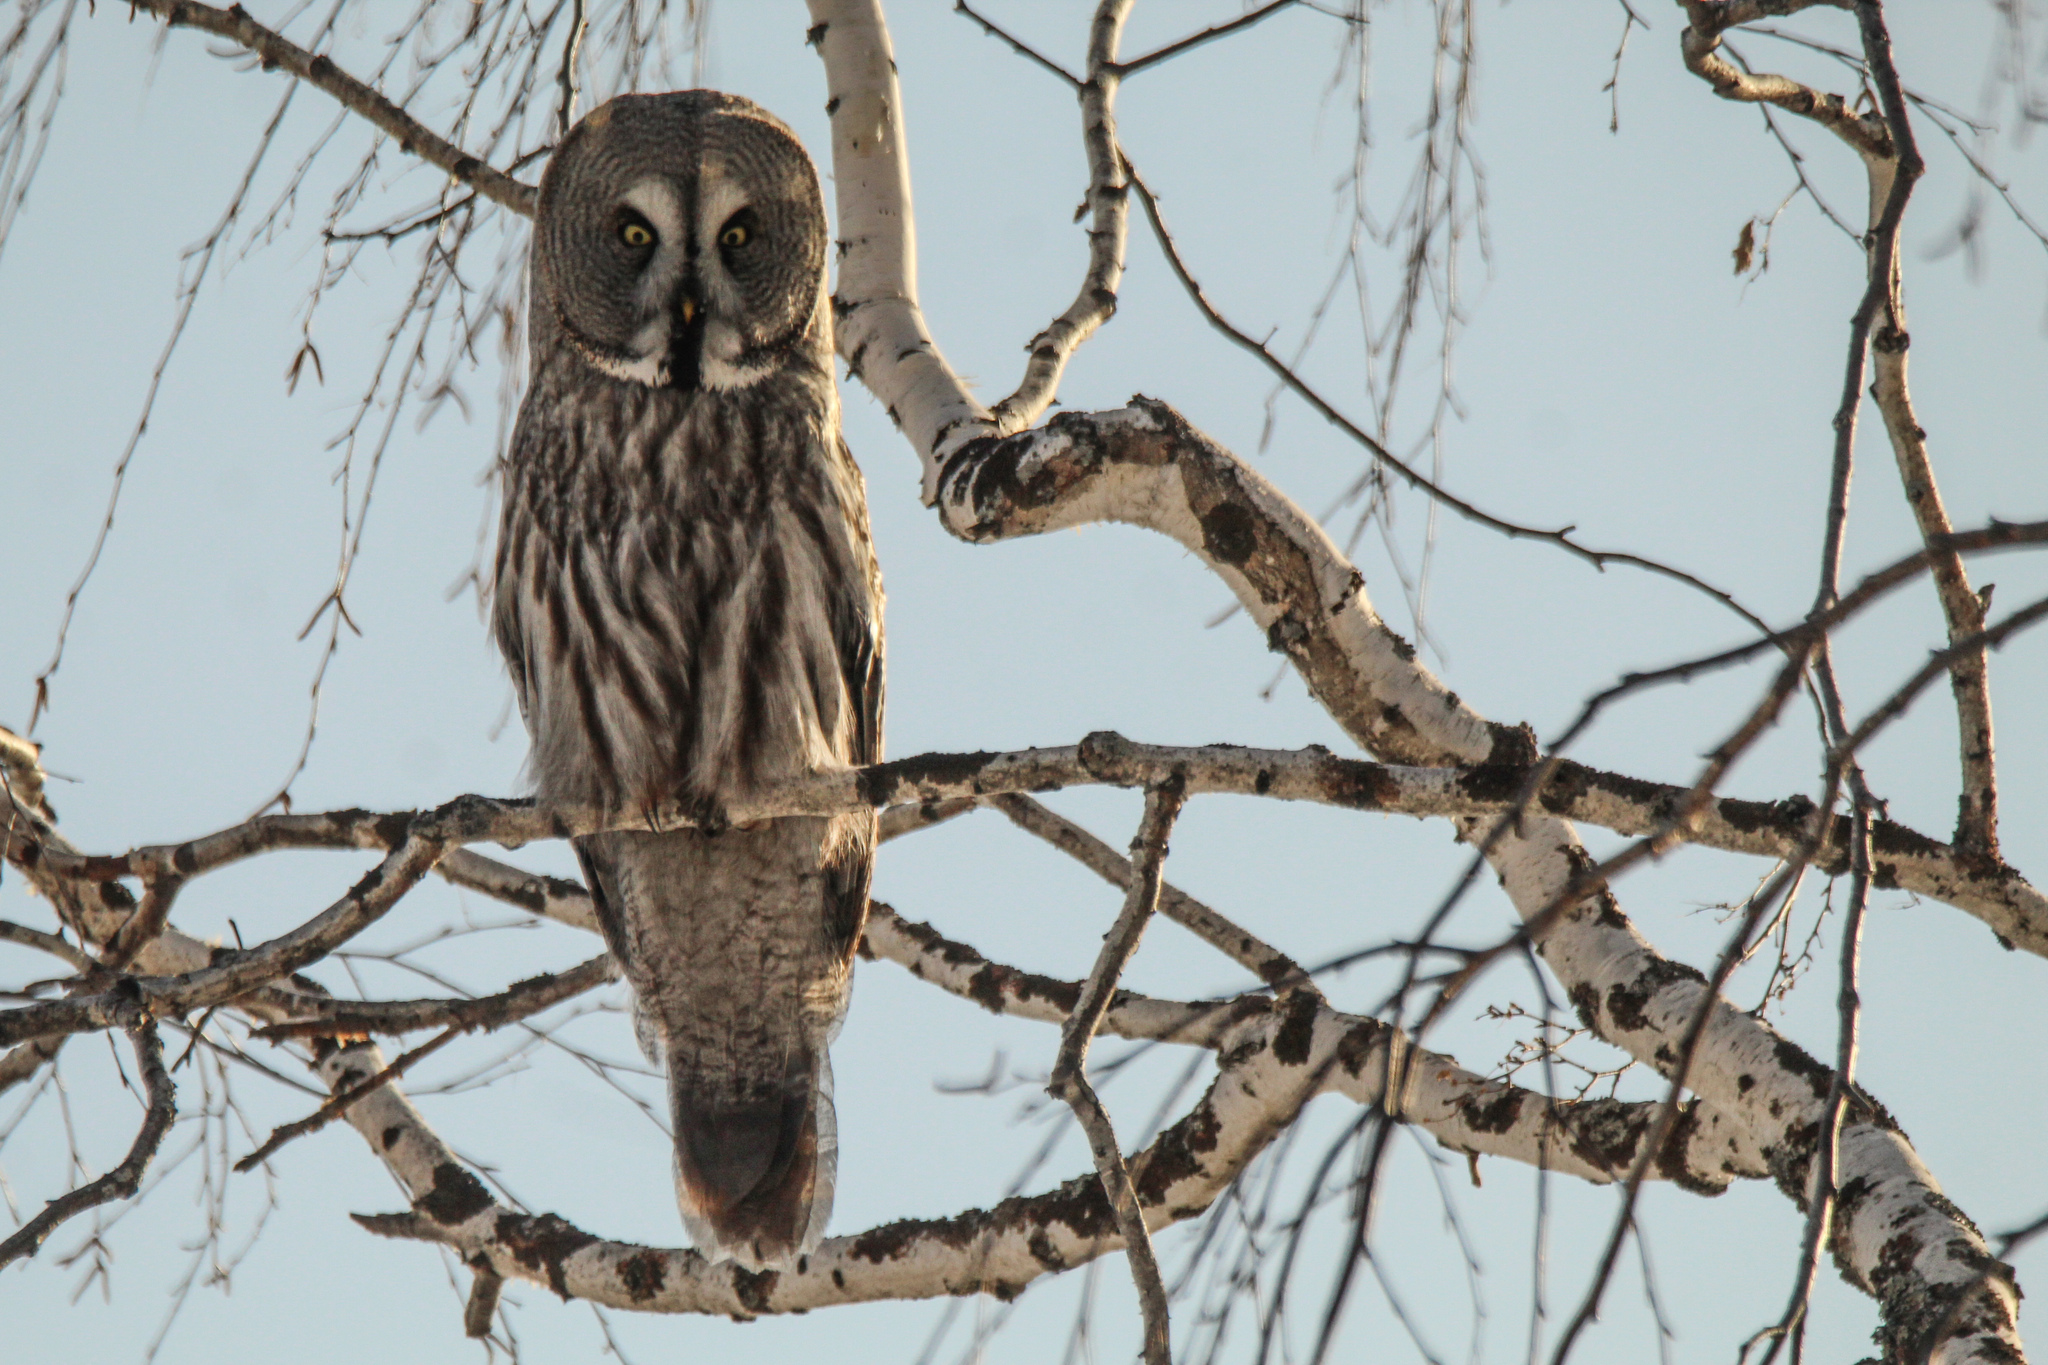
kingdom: Animalia
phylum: Chordata
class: Aves
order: Strigiformes
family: Strigidae
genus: Strix
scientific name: Strix nebulosa
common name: Great grey owl
